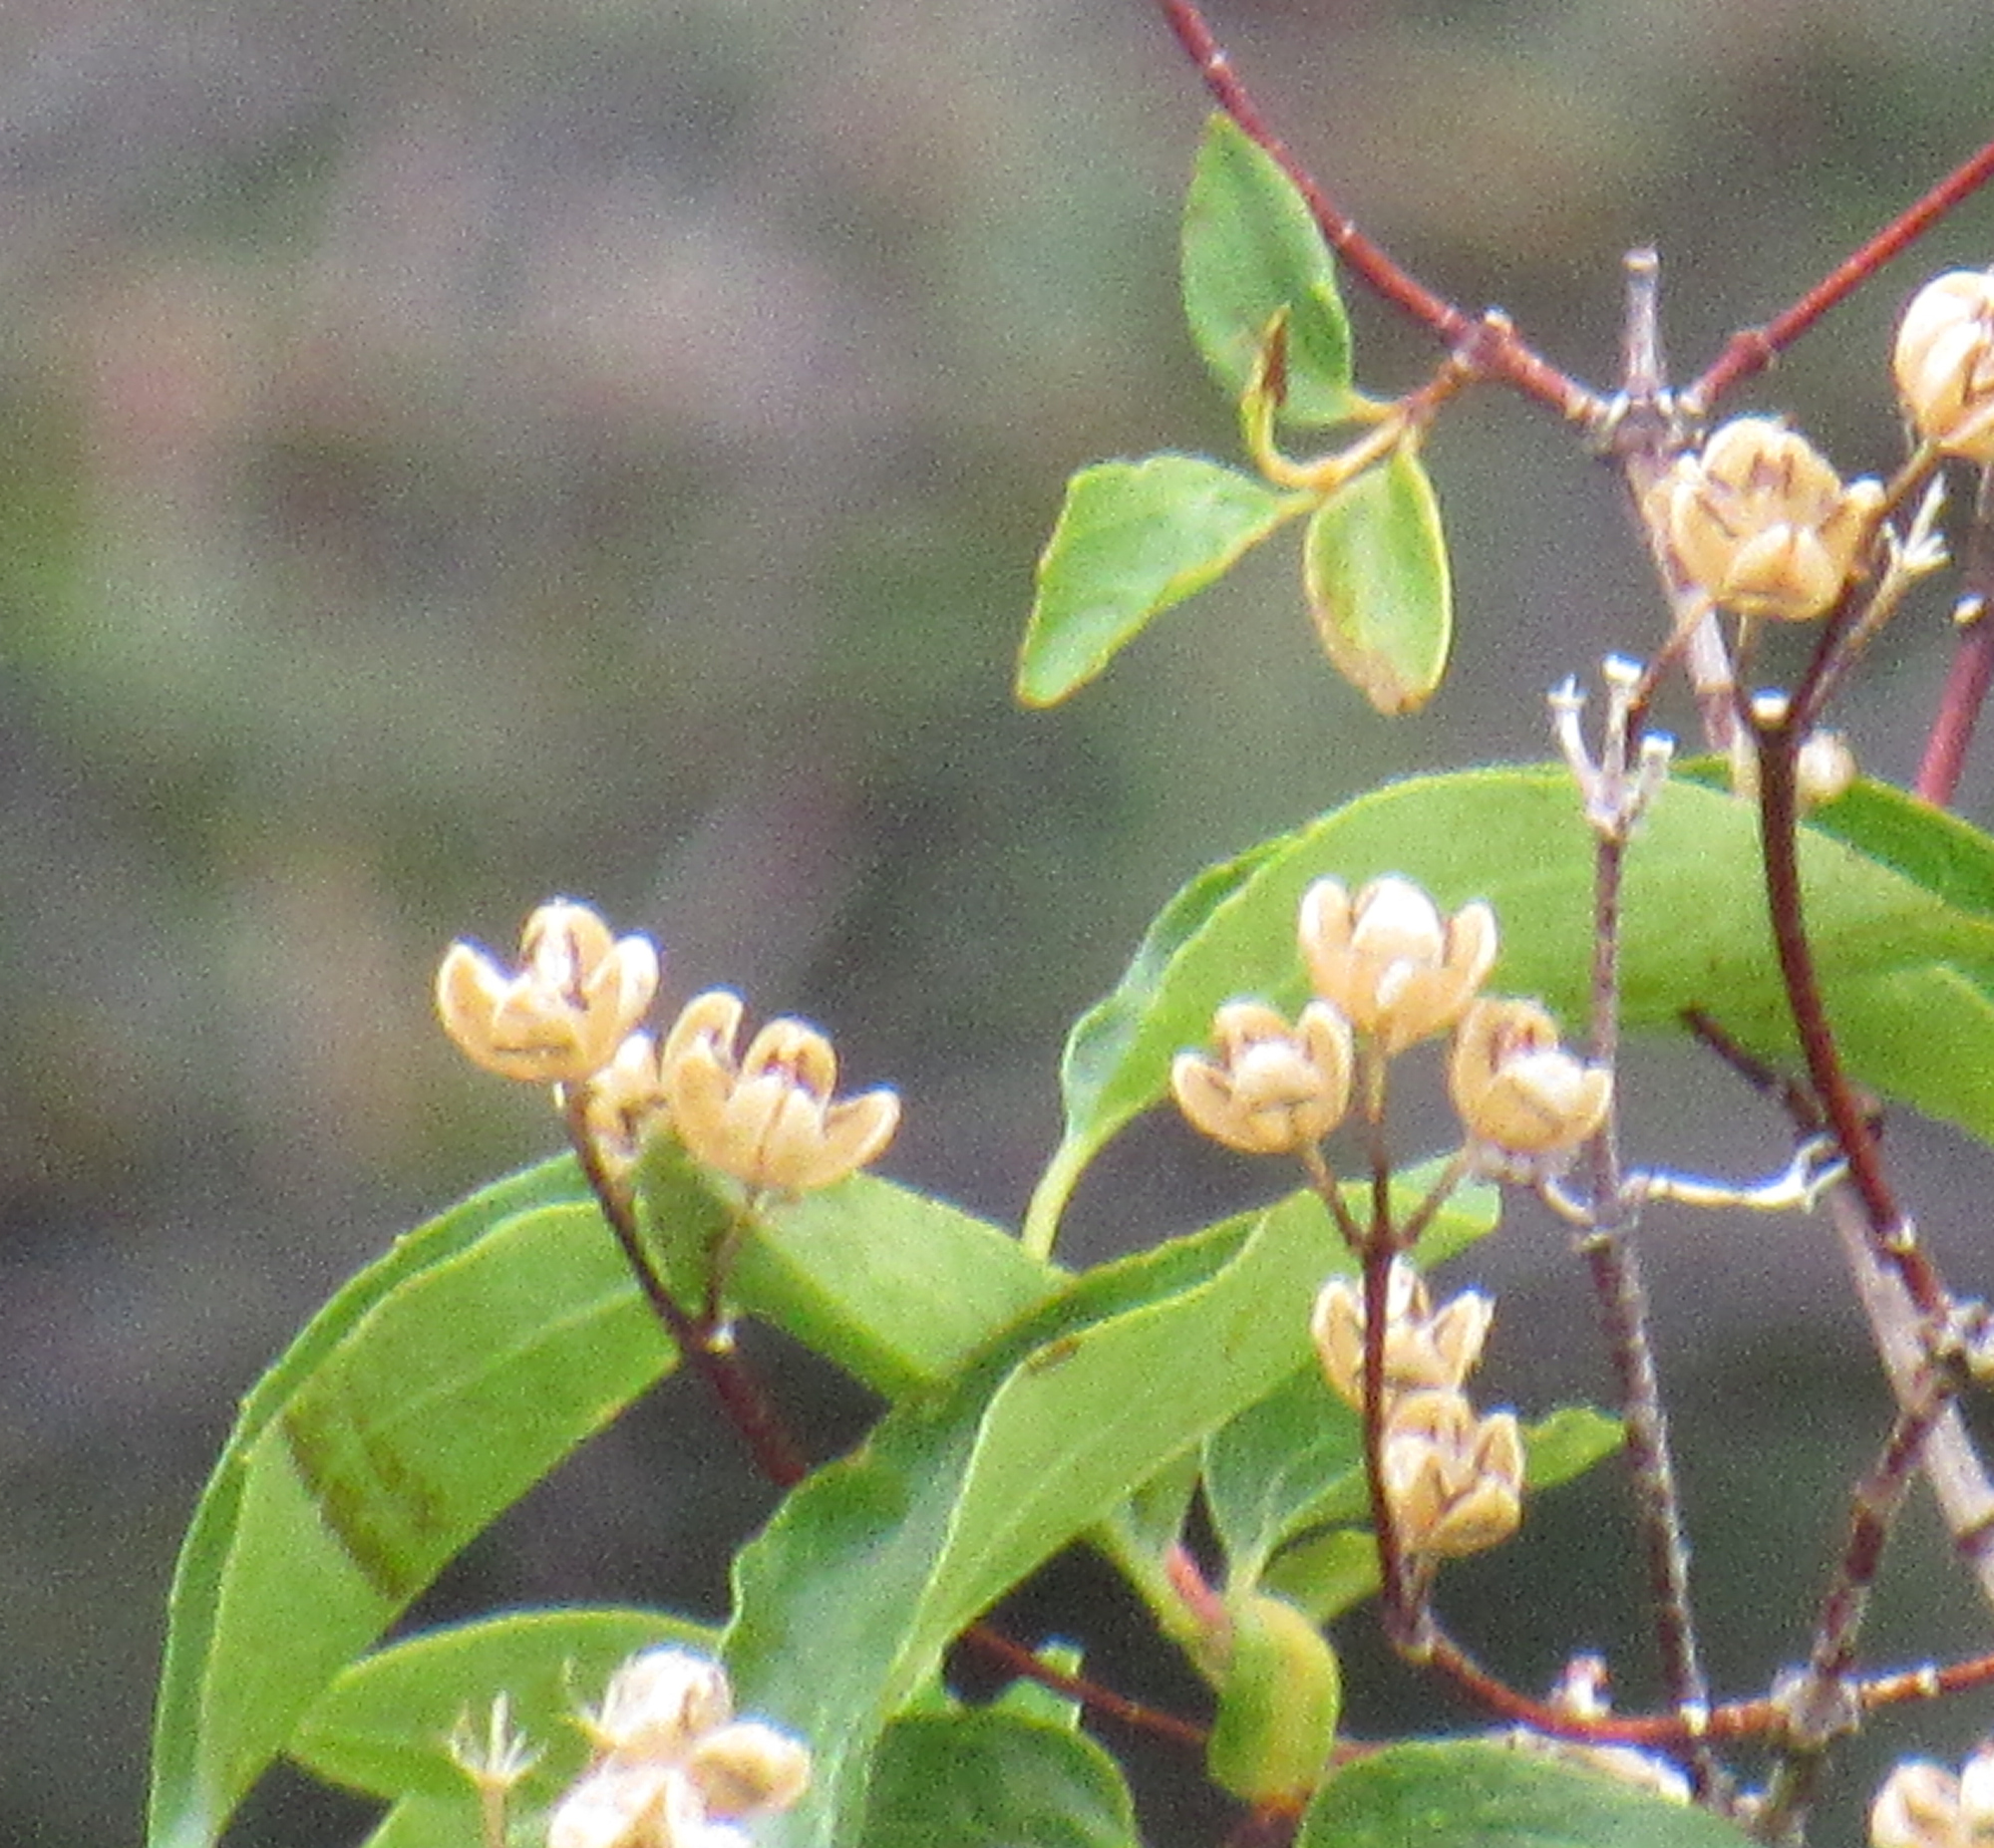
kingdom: Plantae
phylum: Tracheophyta
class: Magnoliopsida
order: Cornales
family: Hydrangeaceae
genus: Philadelphus
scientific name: Philadelphus lewisii
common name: Lewis's mock orange
